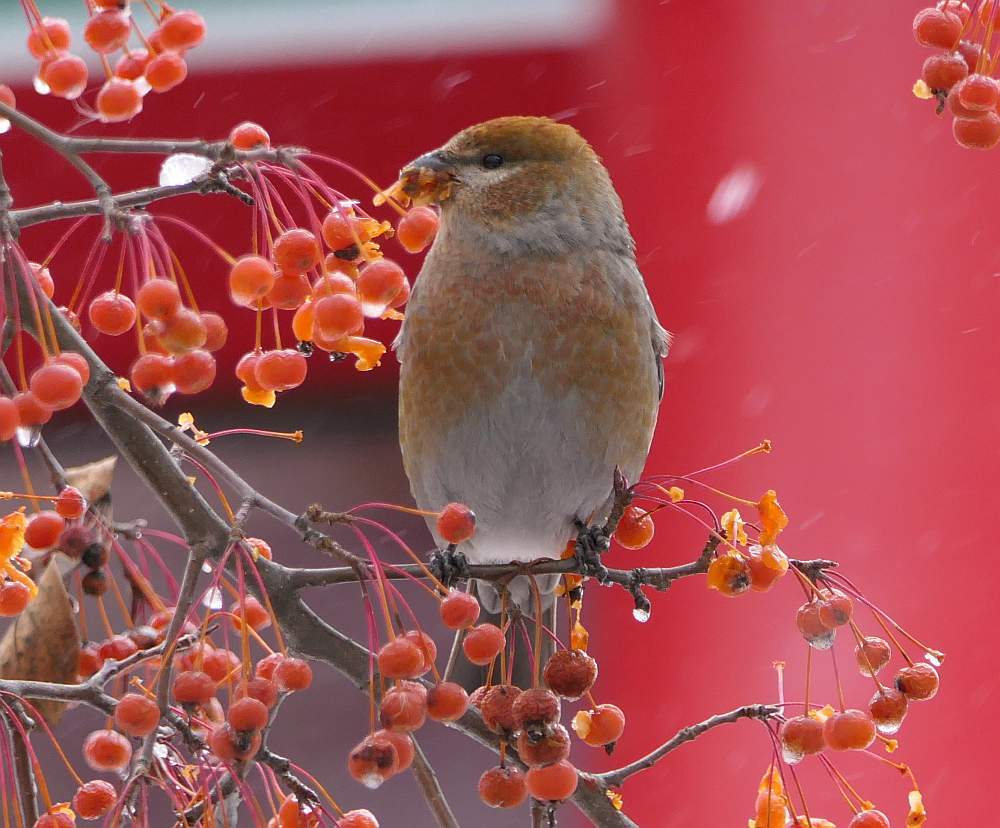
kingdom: Animalia
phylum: Chordata
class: Aves
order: Passeriformes
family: Fringillidae
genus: Pinicola
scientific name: Pinicola enucleator
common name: Pine grosbeak
